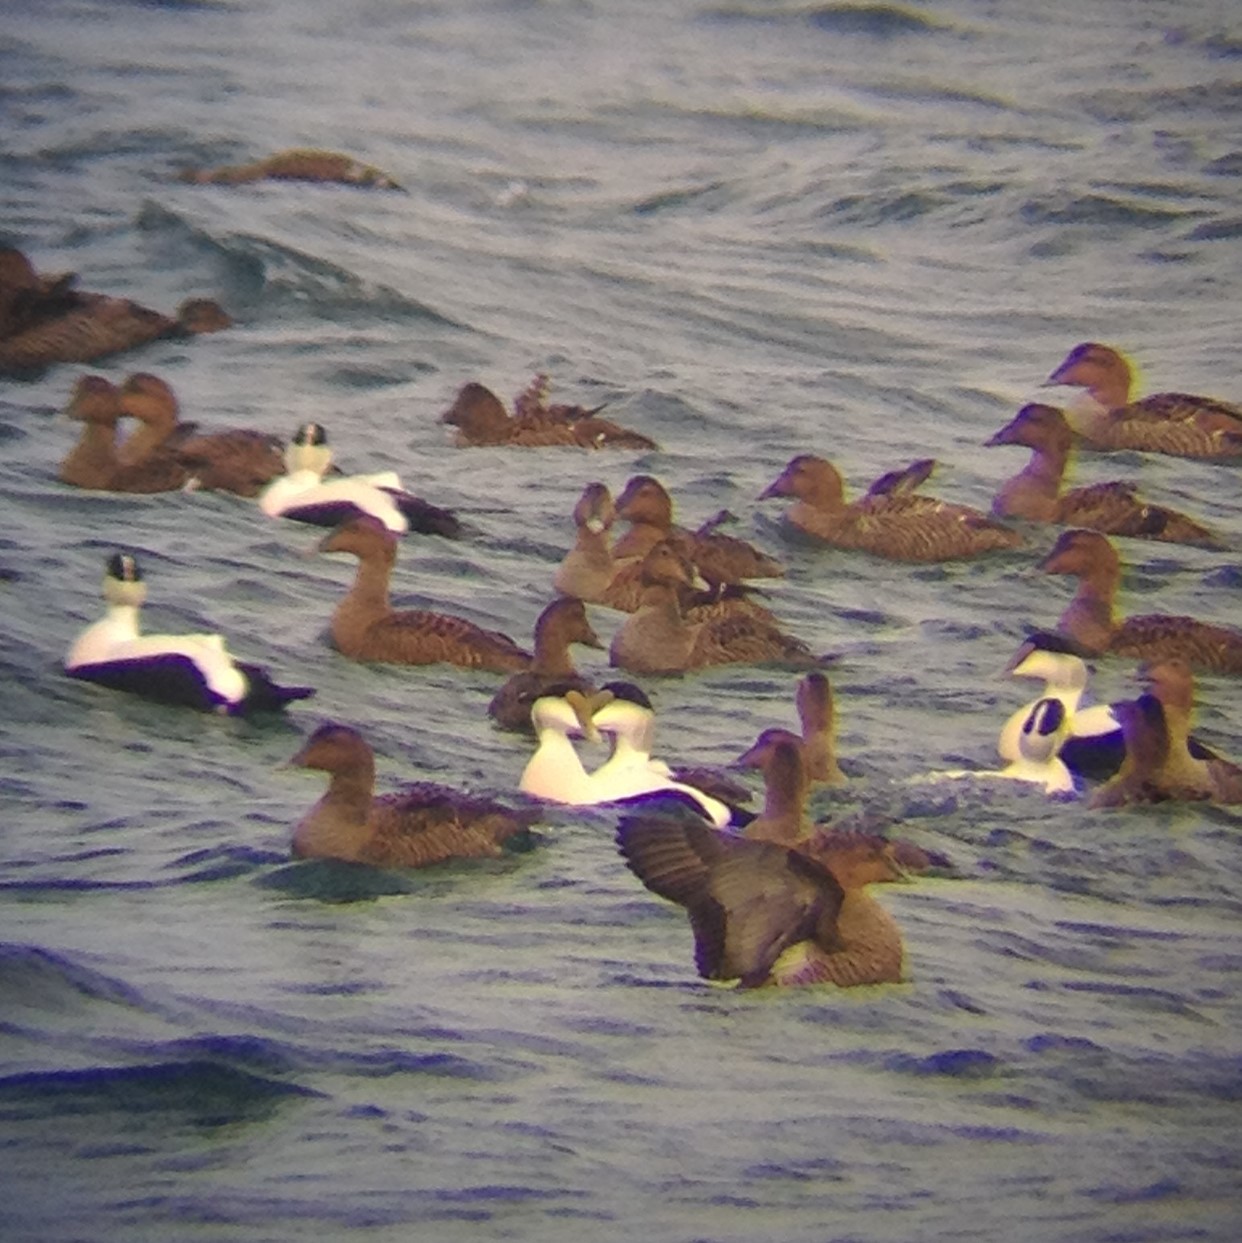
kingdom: Animalia
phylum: Chordata
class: Aves
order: Anseriformes
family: Anatidae
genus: Somateria
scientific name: Somateria mollissima
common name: Common eider
